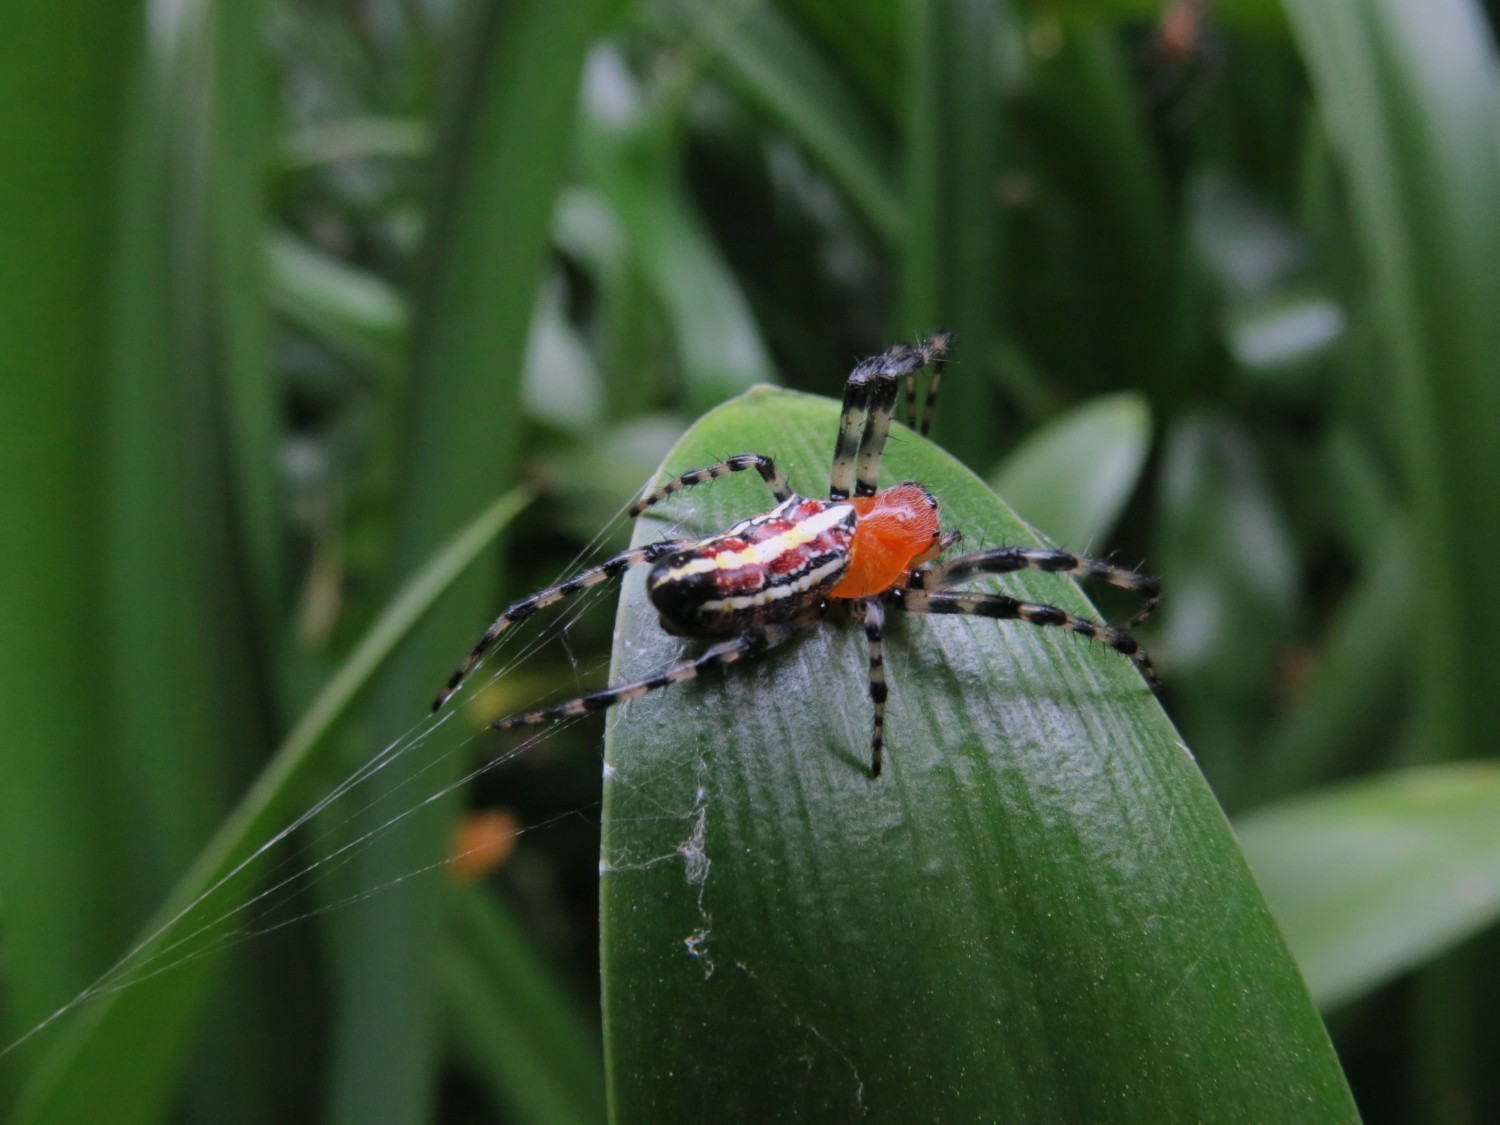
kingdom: Animalia
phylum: Arthropoda
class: Arachnida
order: Araneae
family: Araneidae
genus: Alpaida
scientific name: Alpaida grayi
